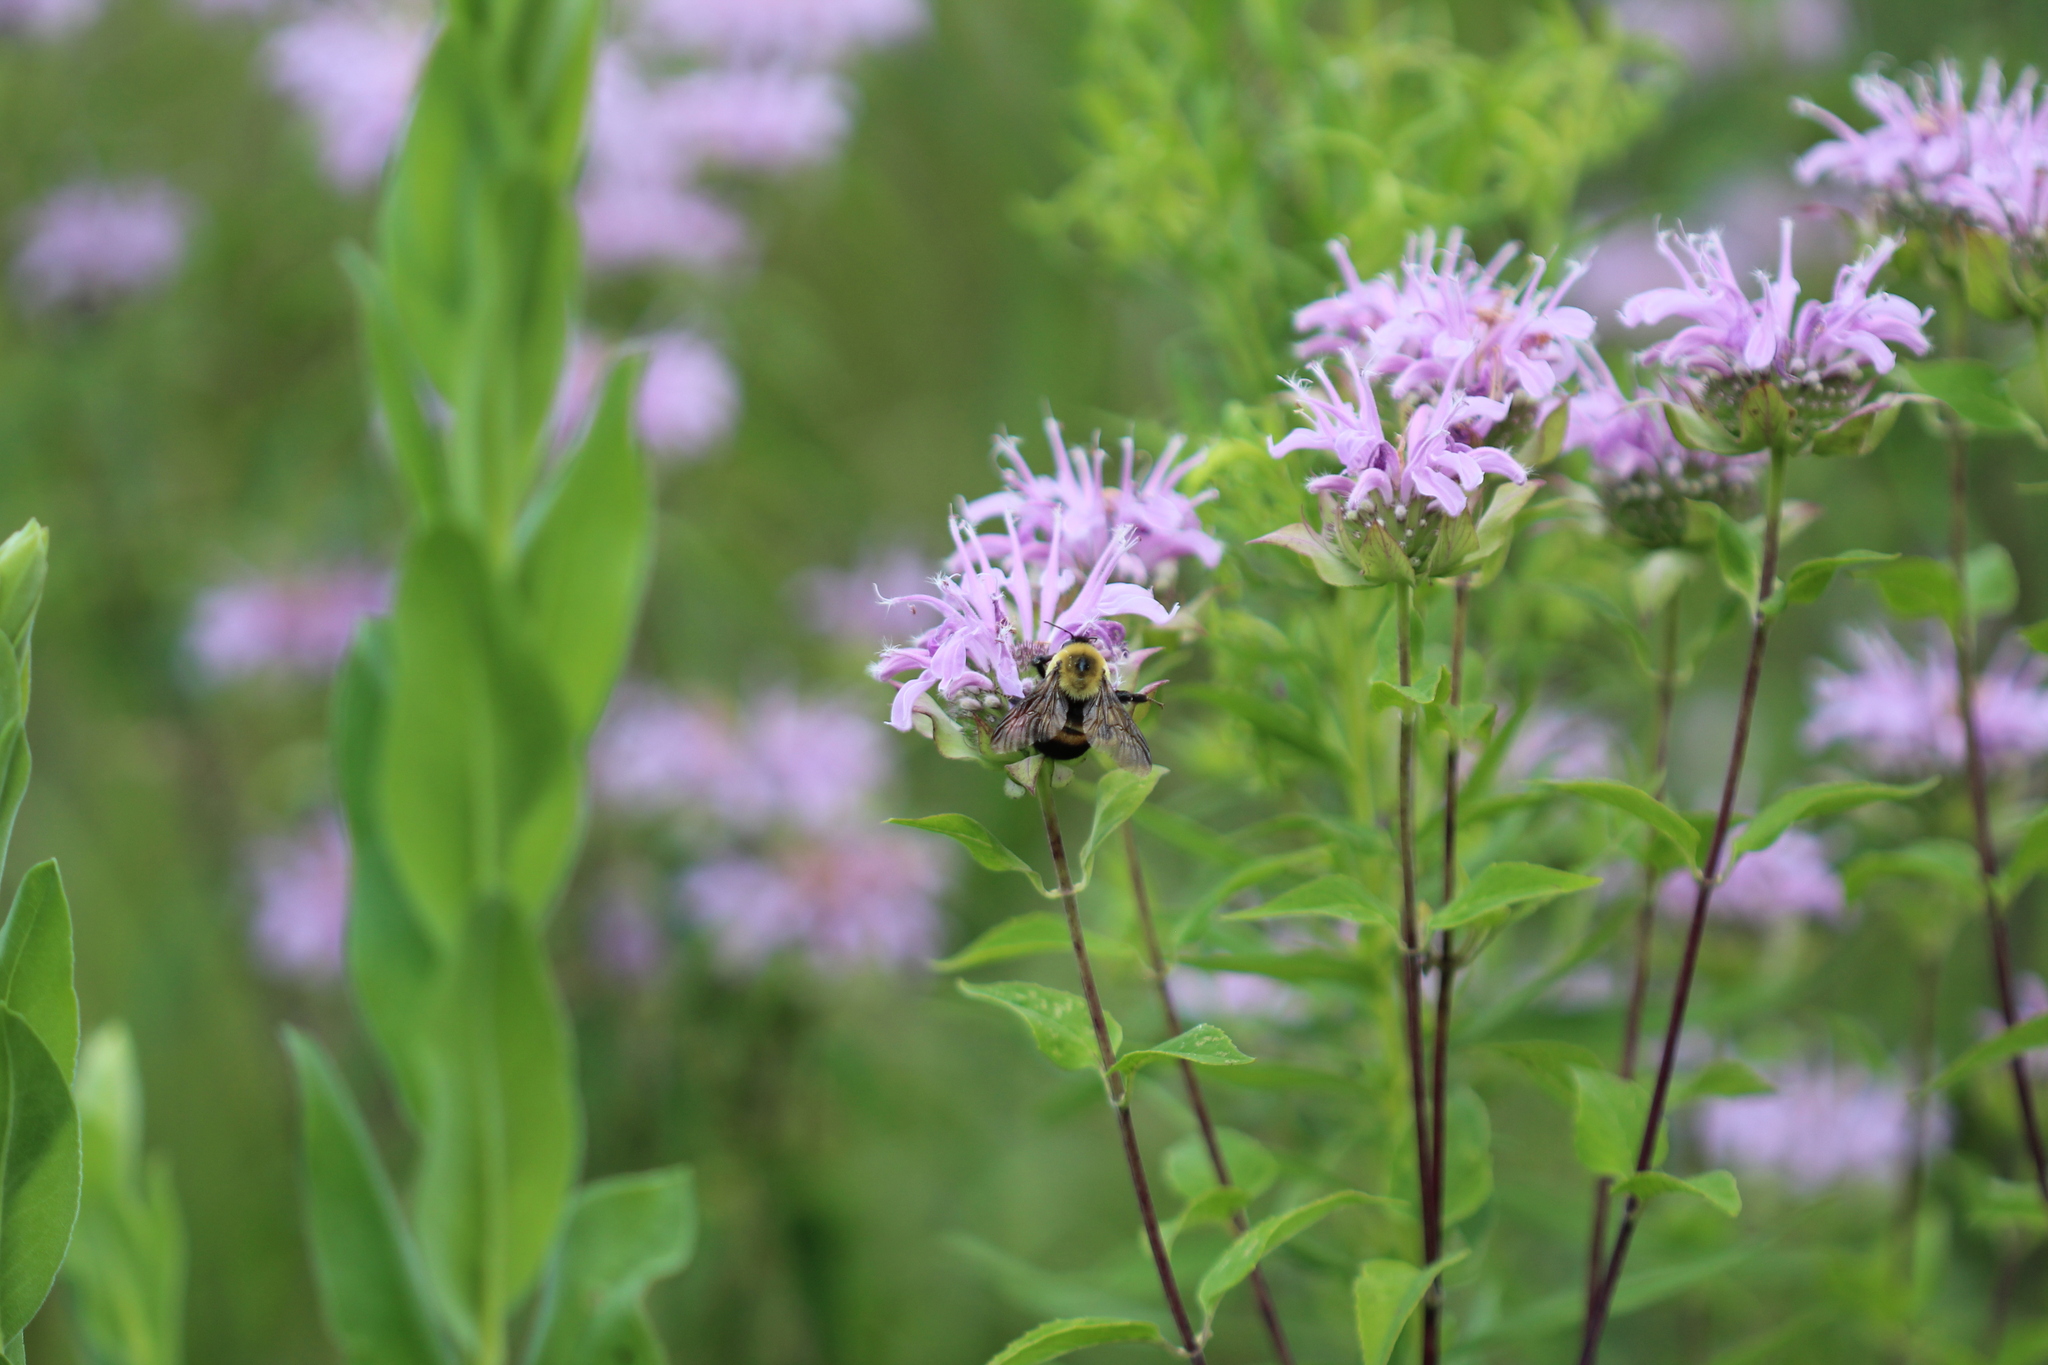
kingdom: Animalia
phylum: Arthropoda
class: Insecta
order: Hymenoptera
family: Apidae
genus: Bombus
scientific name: Bombus griseocollis
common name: Brown-belted bumble bee
